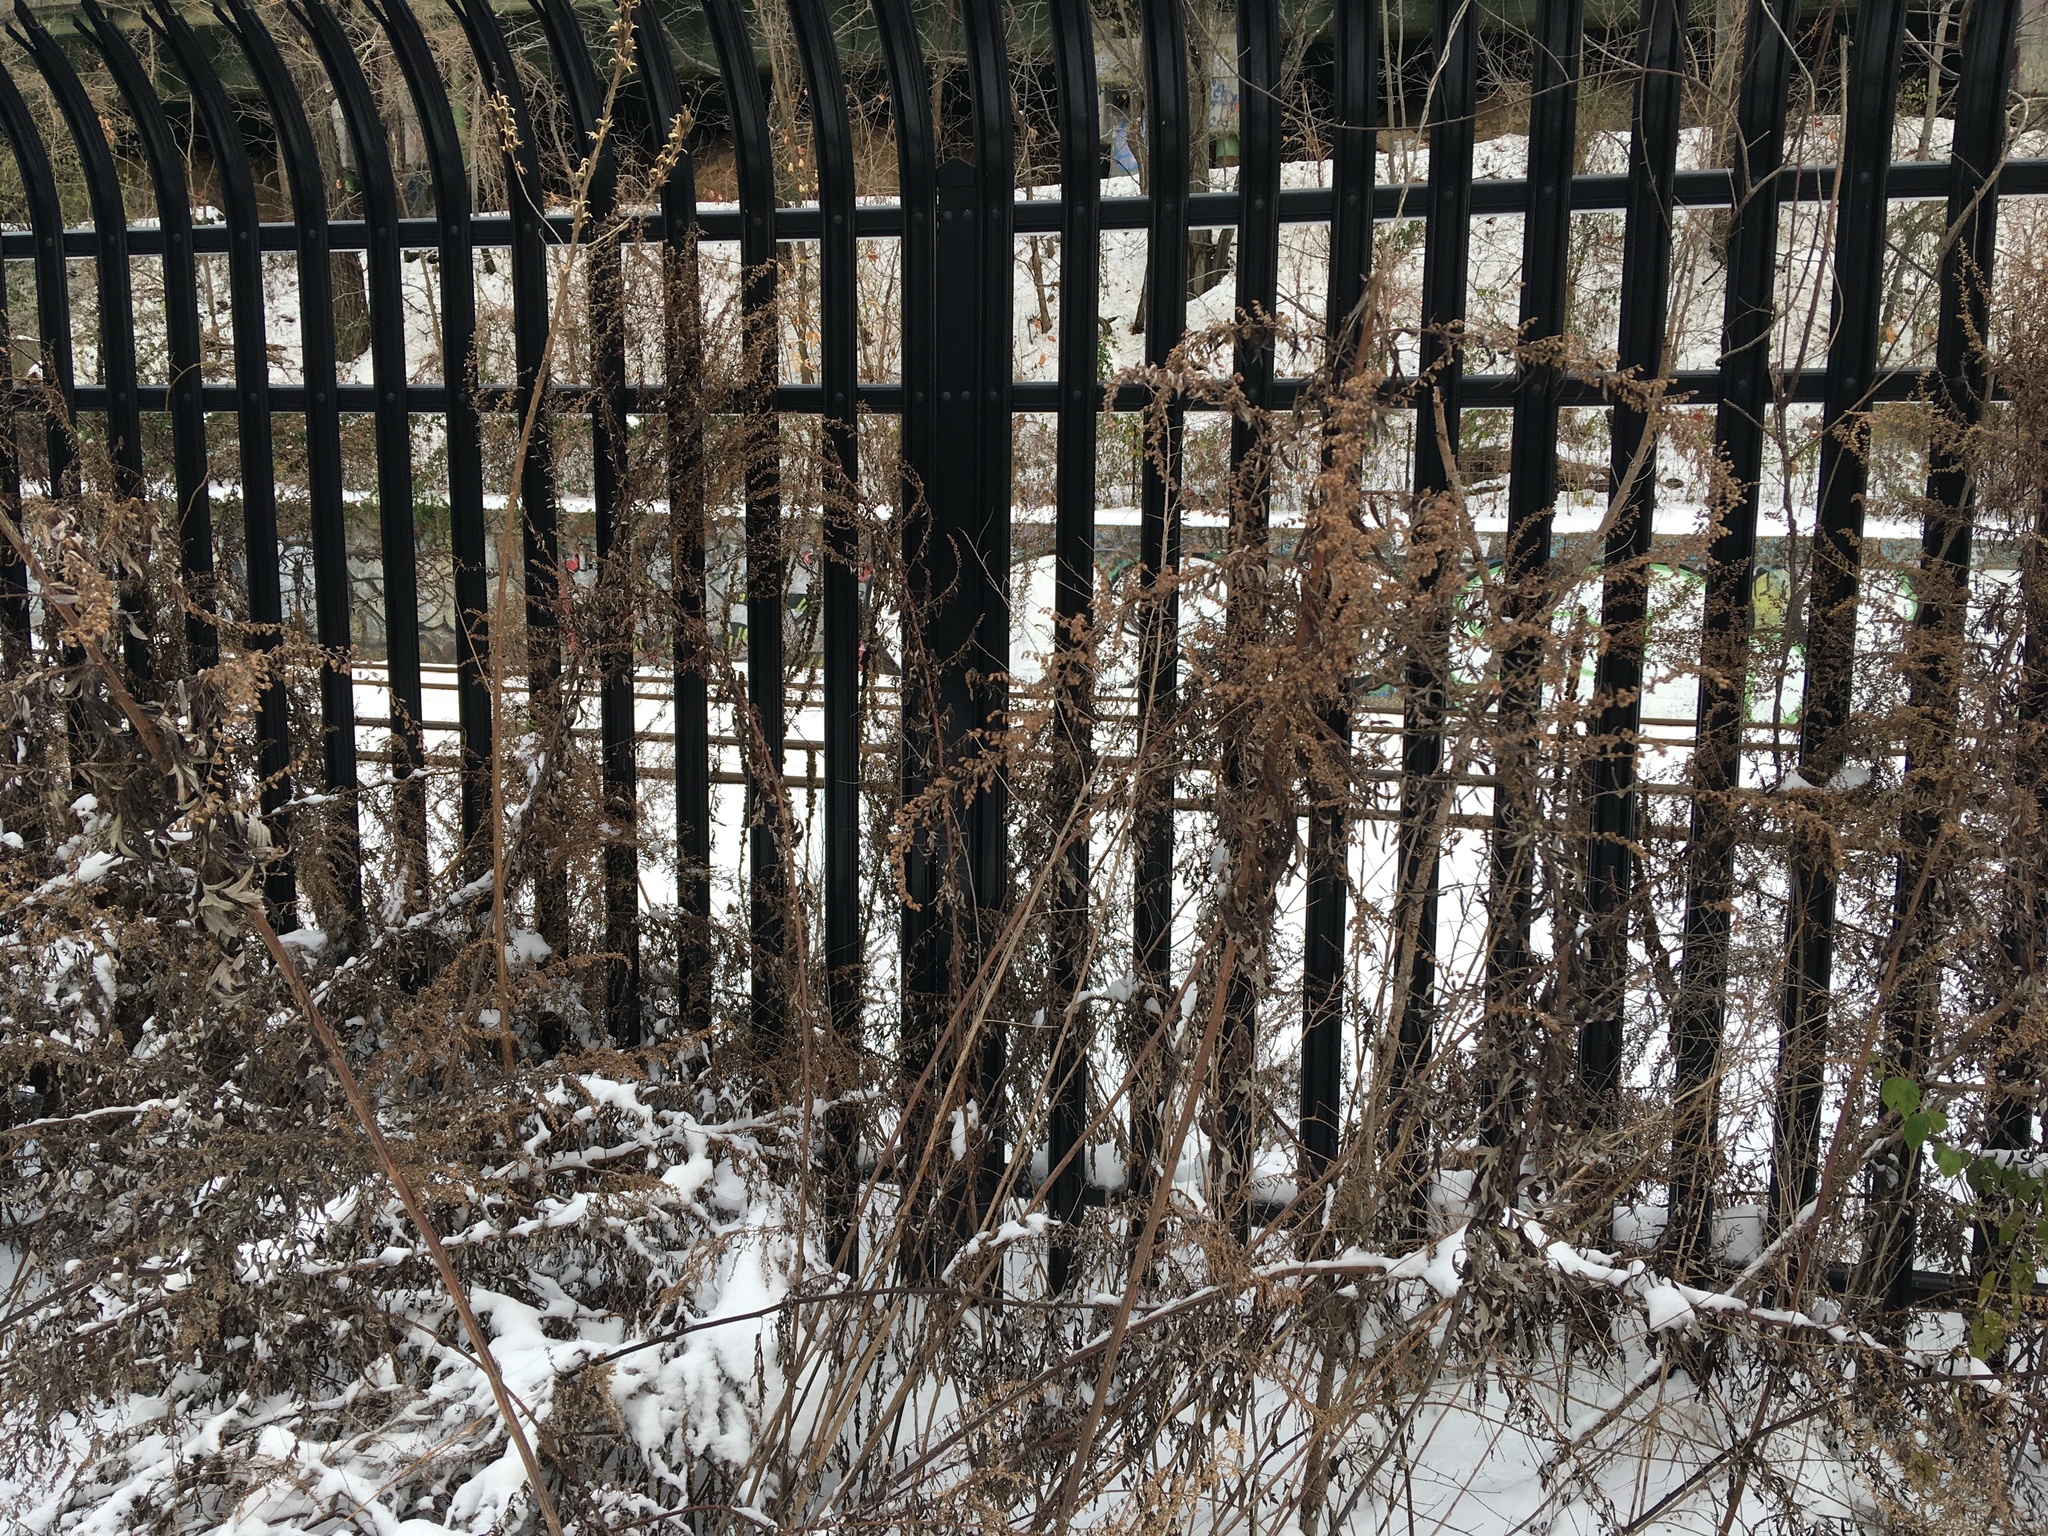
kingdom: Plantae
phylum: Tracheophyta
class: Magnoliopsida
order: Asterales
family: Asteraceae
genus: Artemisia
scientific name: Artemisia vulgaris
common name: Mugwort
